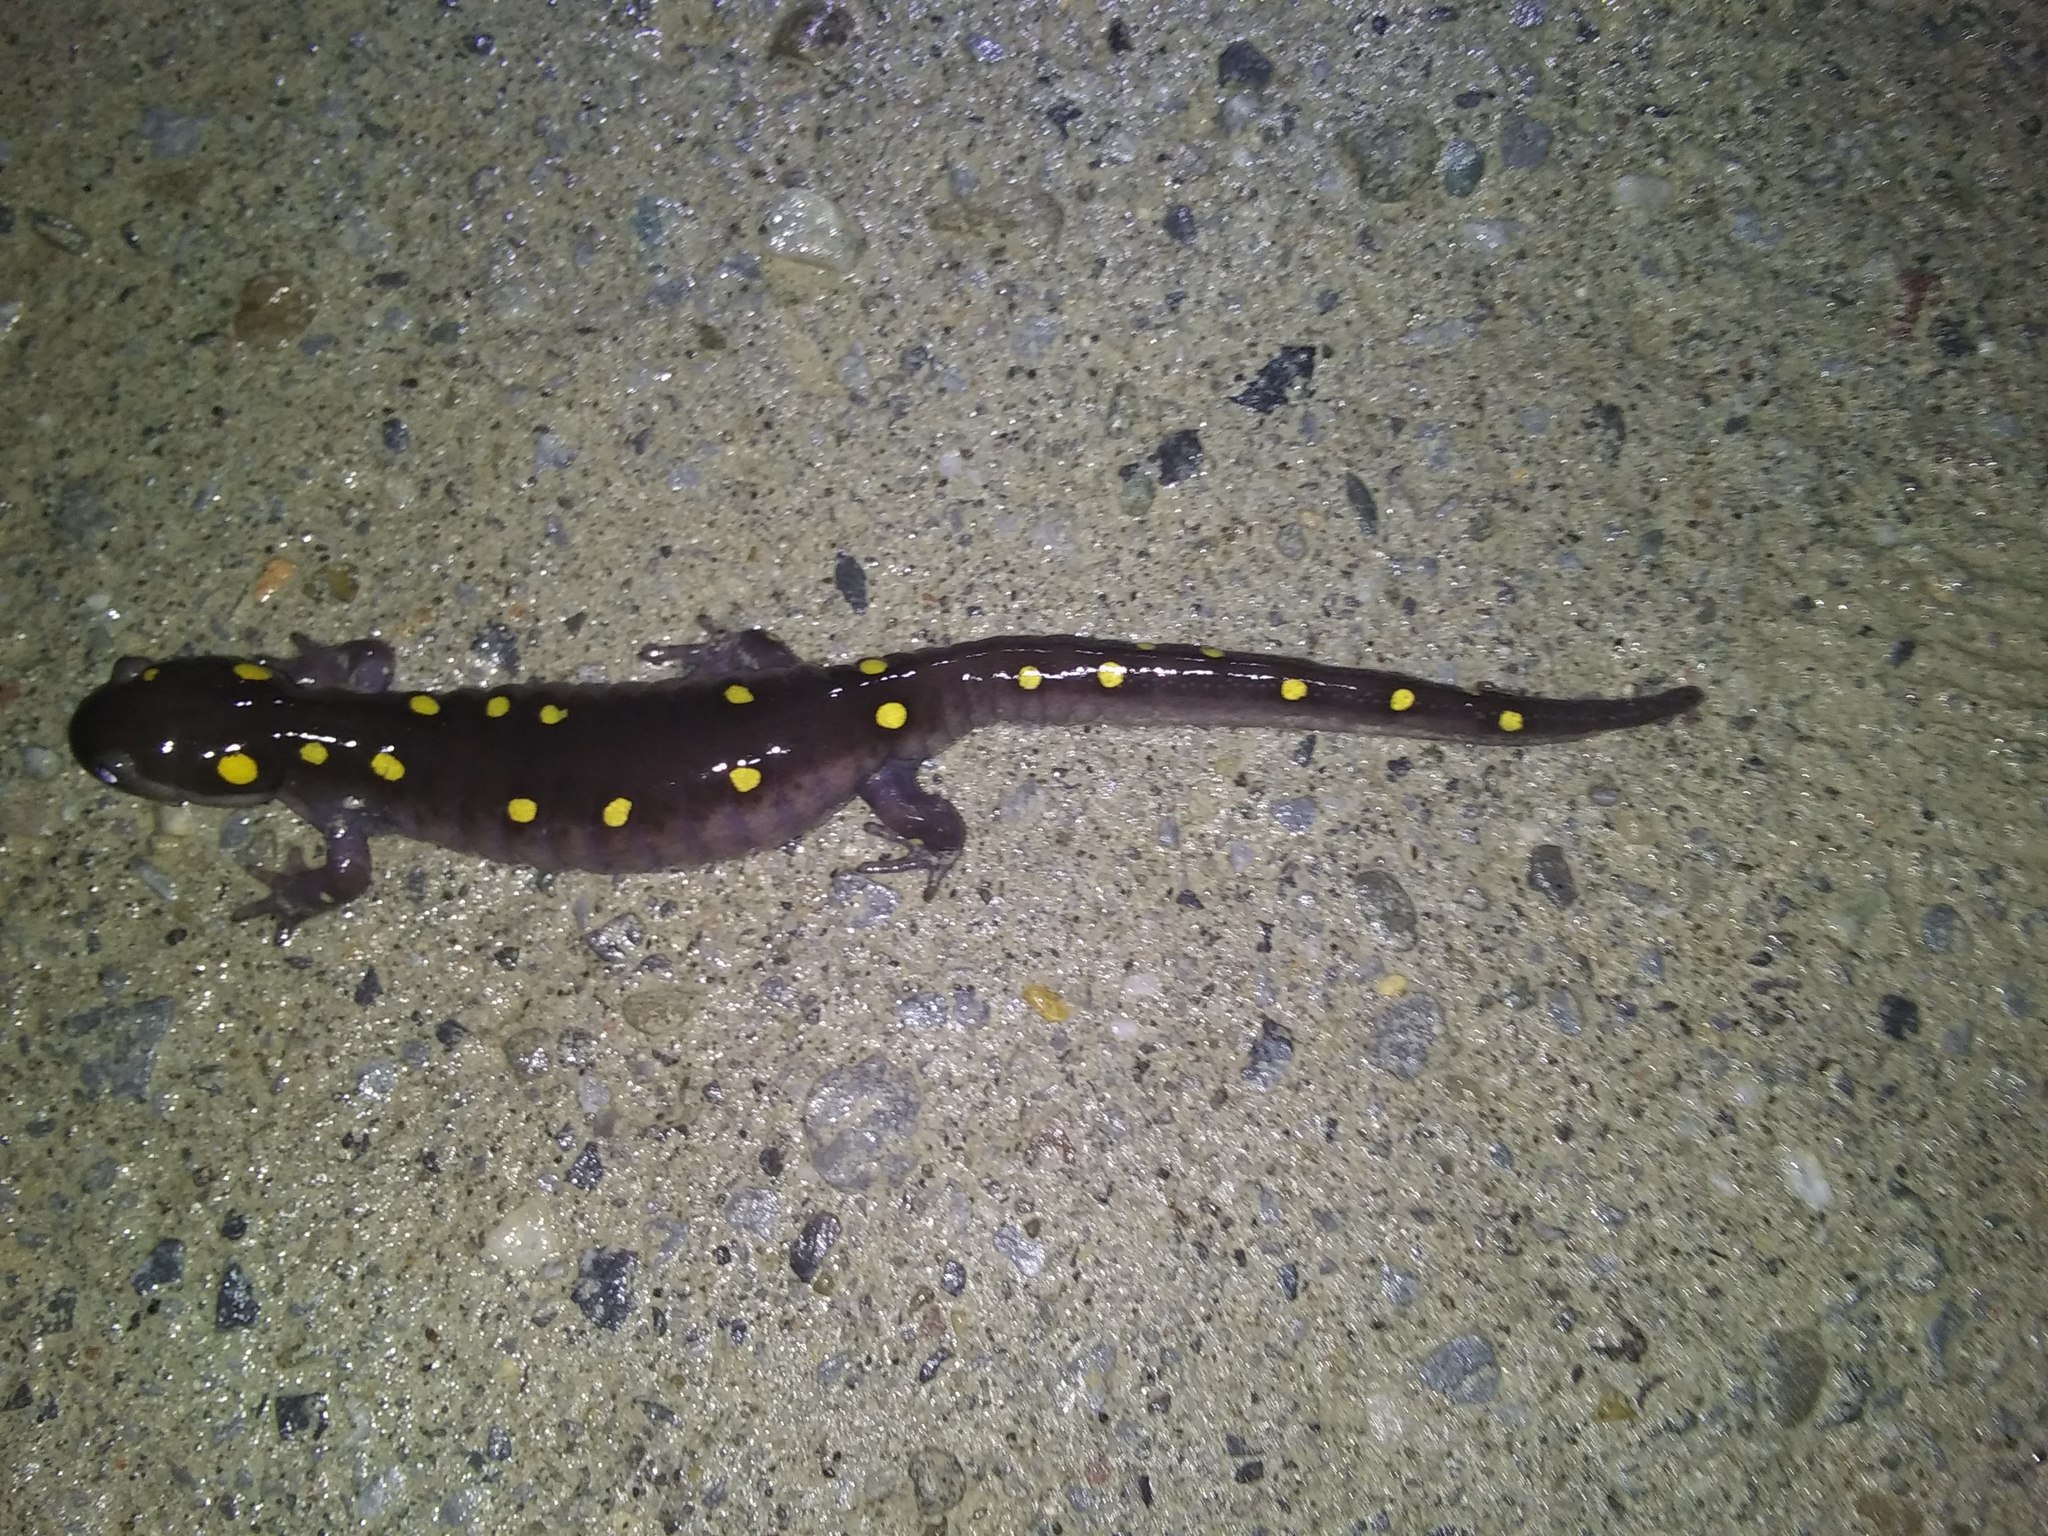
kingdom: Animalia
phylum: Chordata
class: Amphibia
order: Caudata
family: Ambystomatidae
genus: Ambystoma
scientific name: Ambystoma maculatum
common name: Spotted salamander
